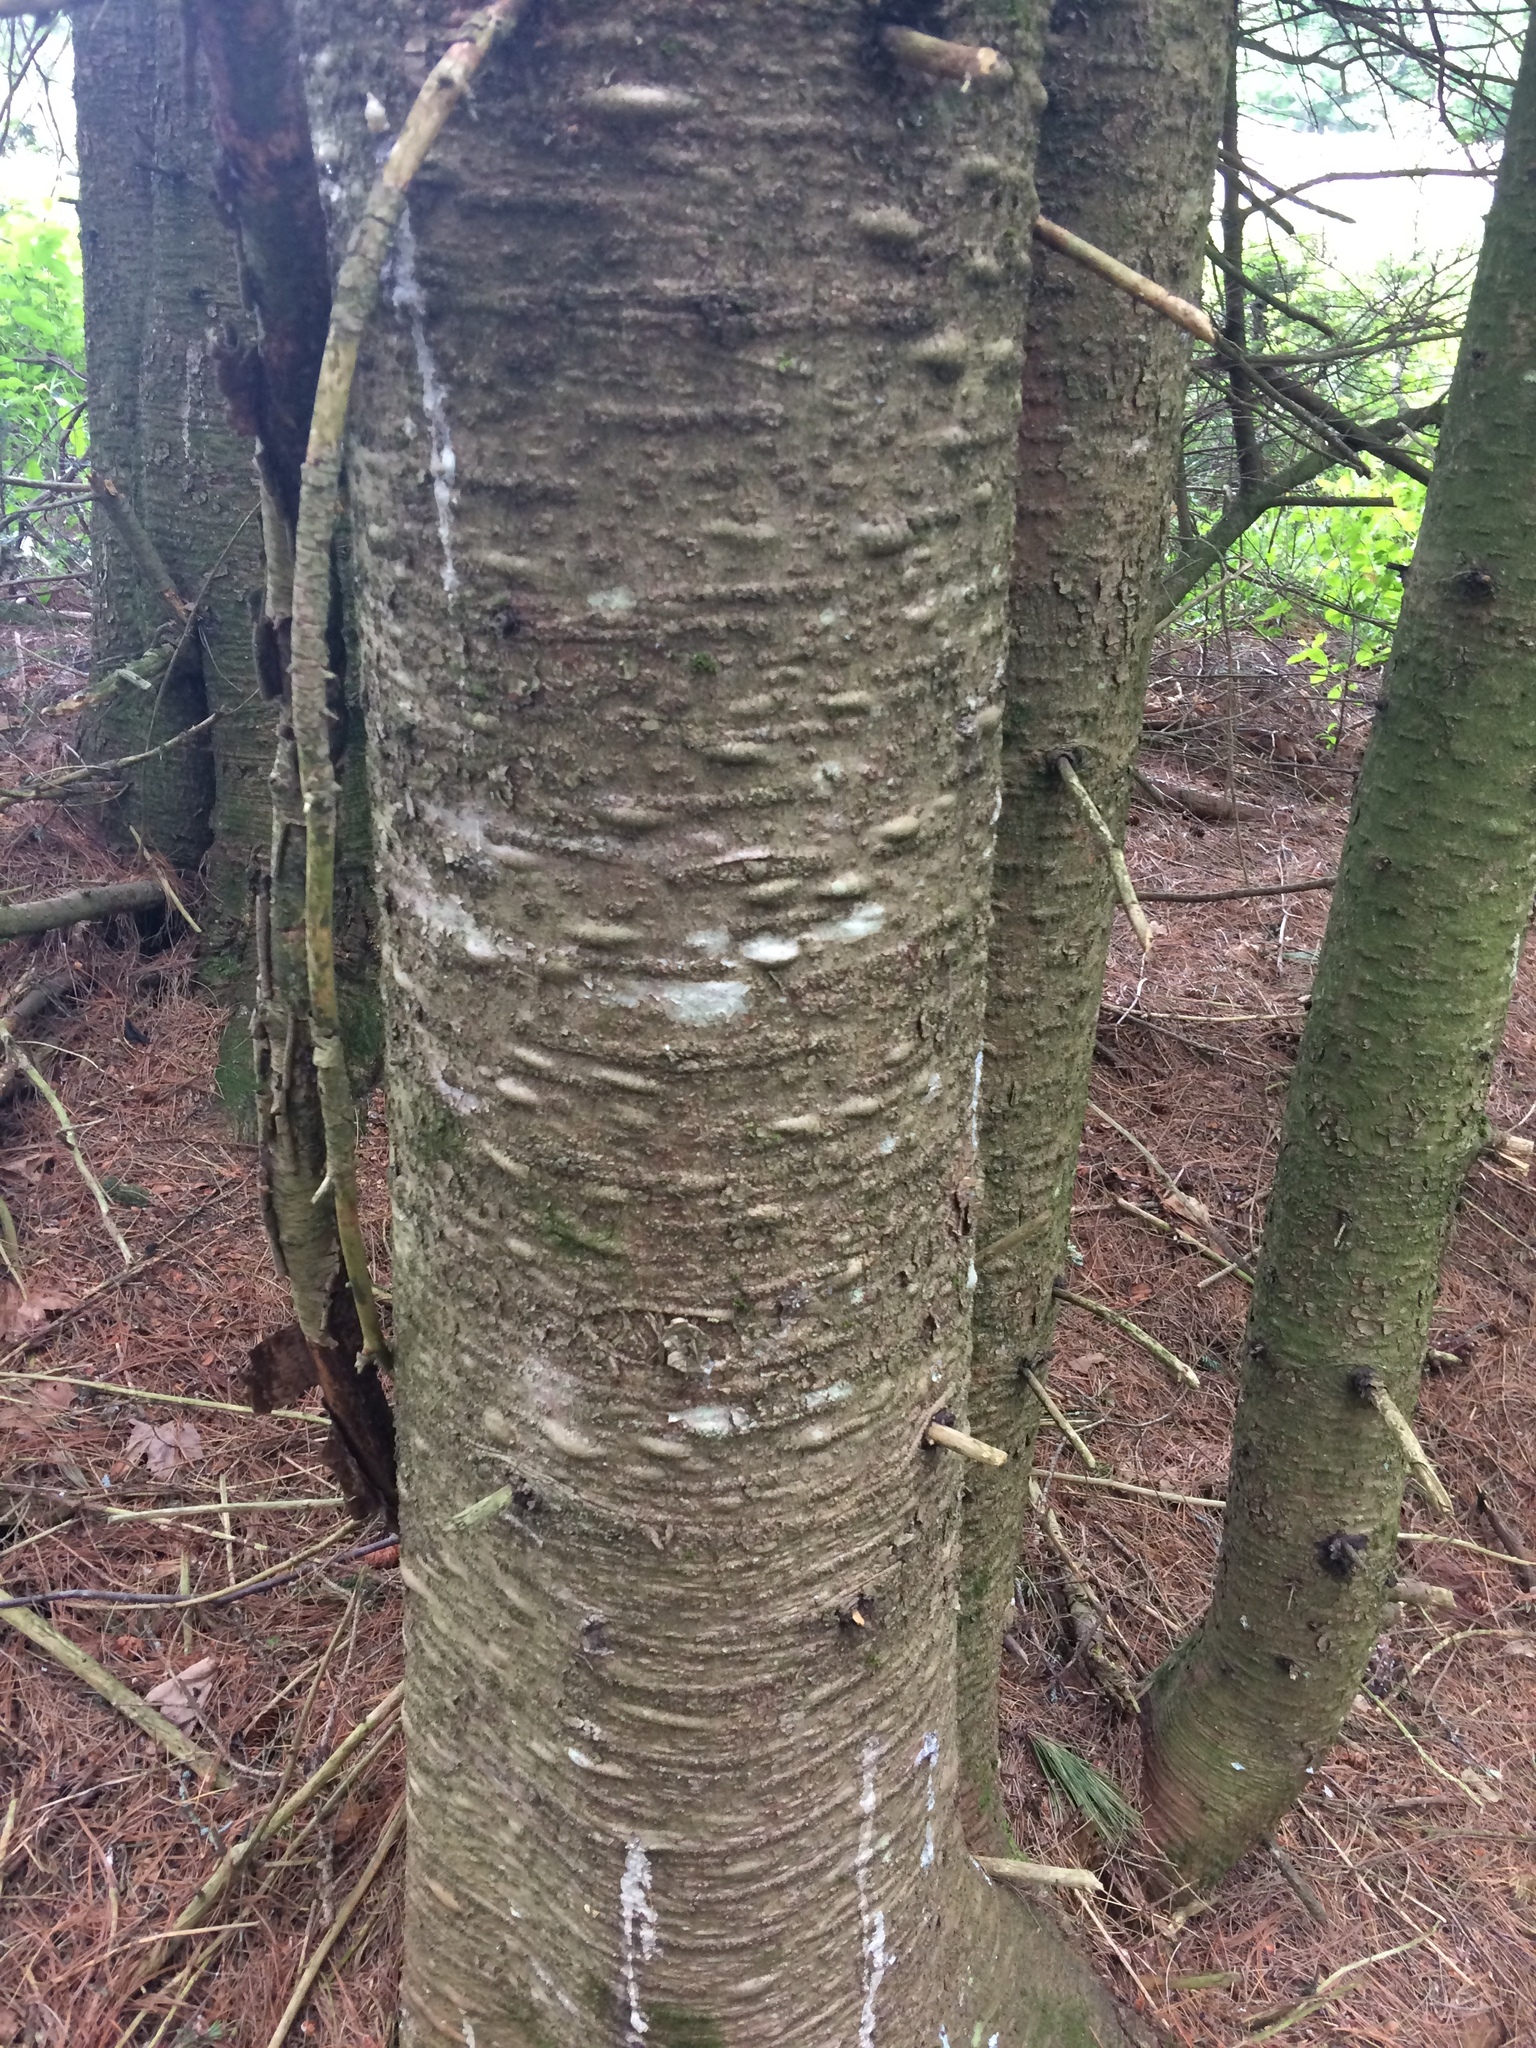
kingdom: Plantae
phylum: Tracheophyta
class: Pinopsida
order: Pinales
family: Pinaceae
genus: Abies
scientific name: Abies balsamea
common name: Balsam fir
